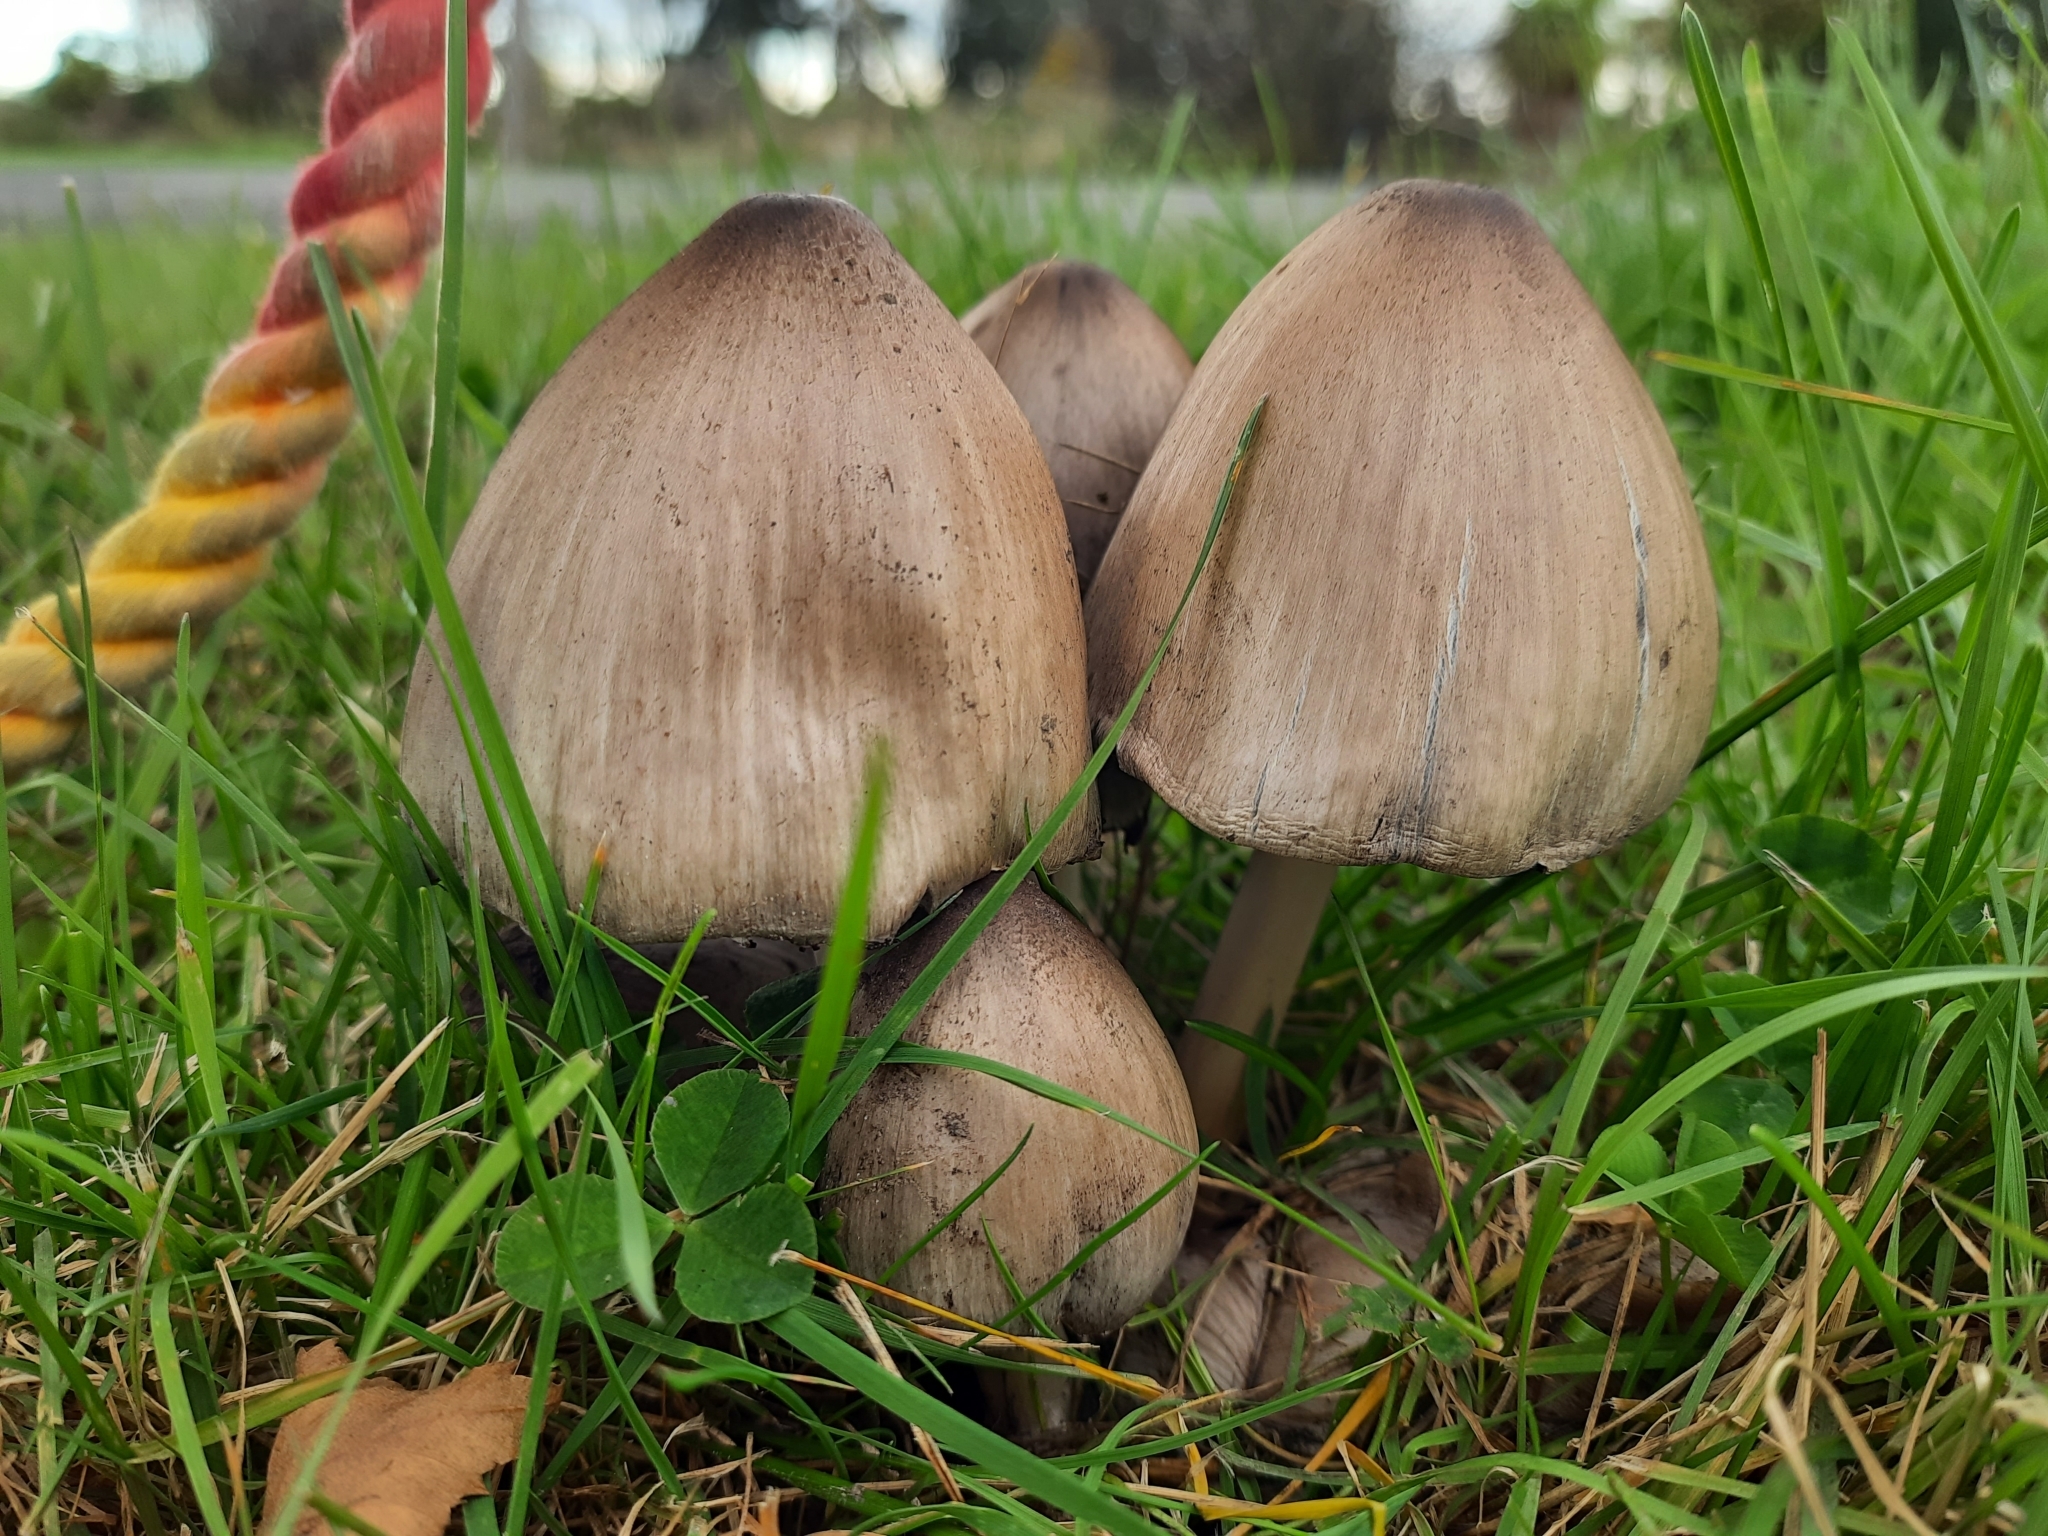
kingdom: Fungi
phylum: Basidiomycota
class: Agaricomycetes
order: Agaricales
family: Psathyrellaceae
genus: Coprinopsis
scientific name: Coprinopsis atramentaria
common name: Common ink-cap
